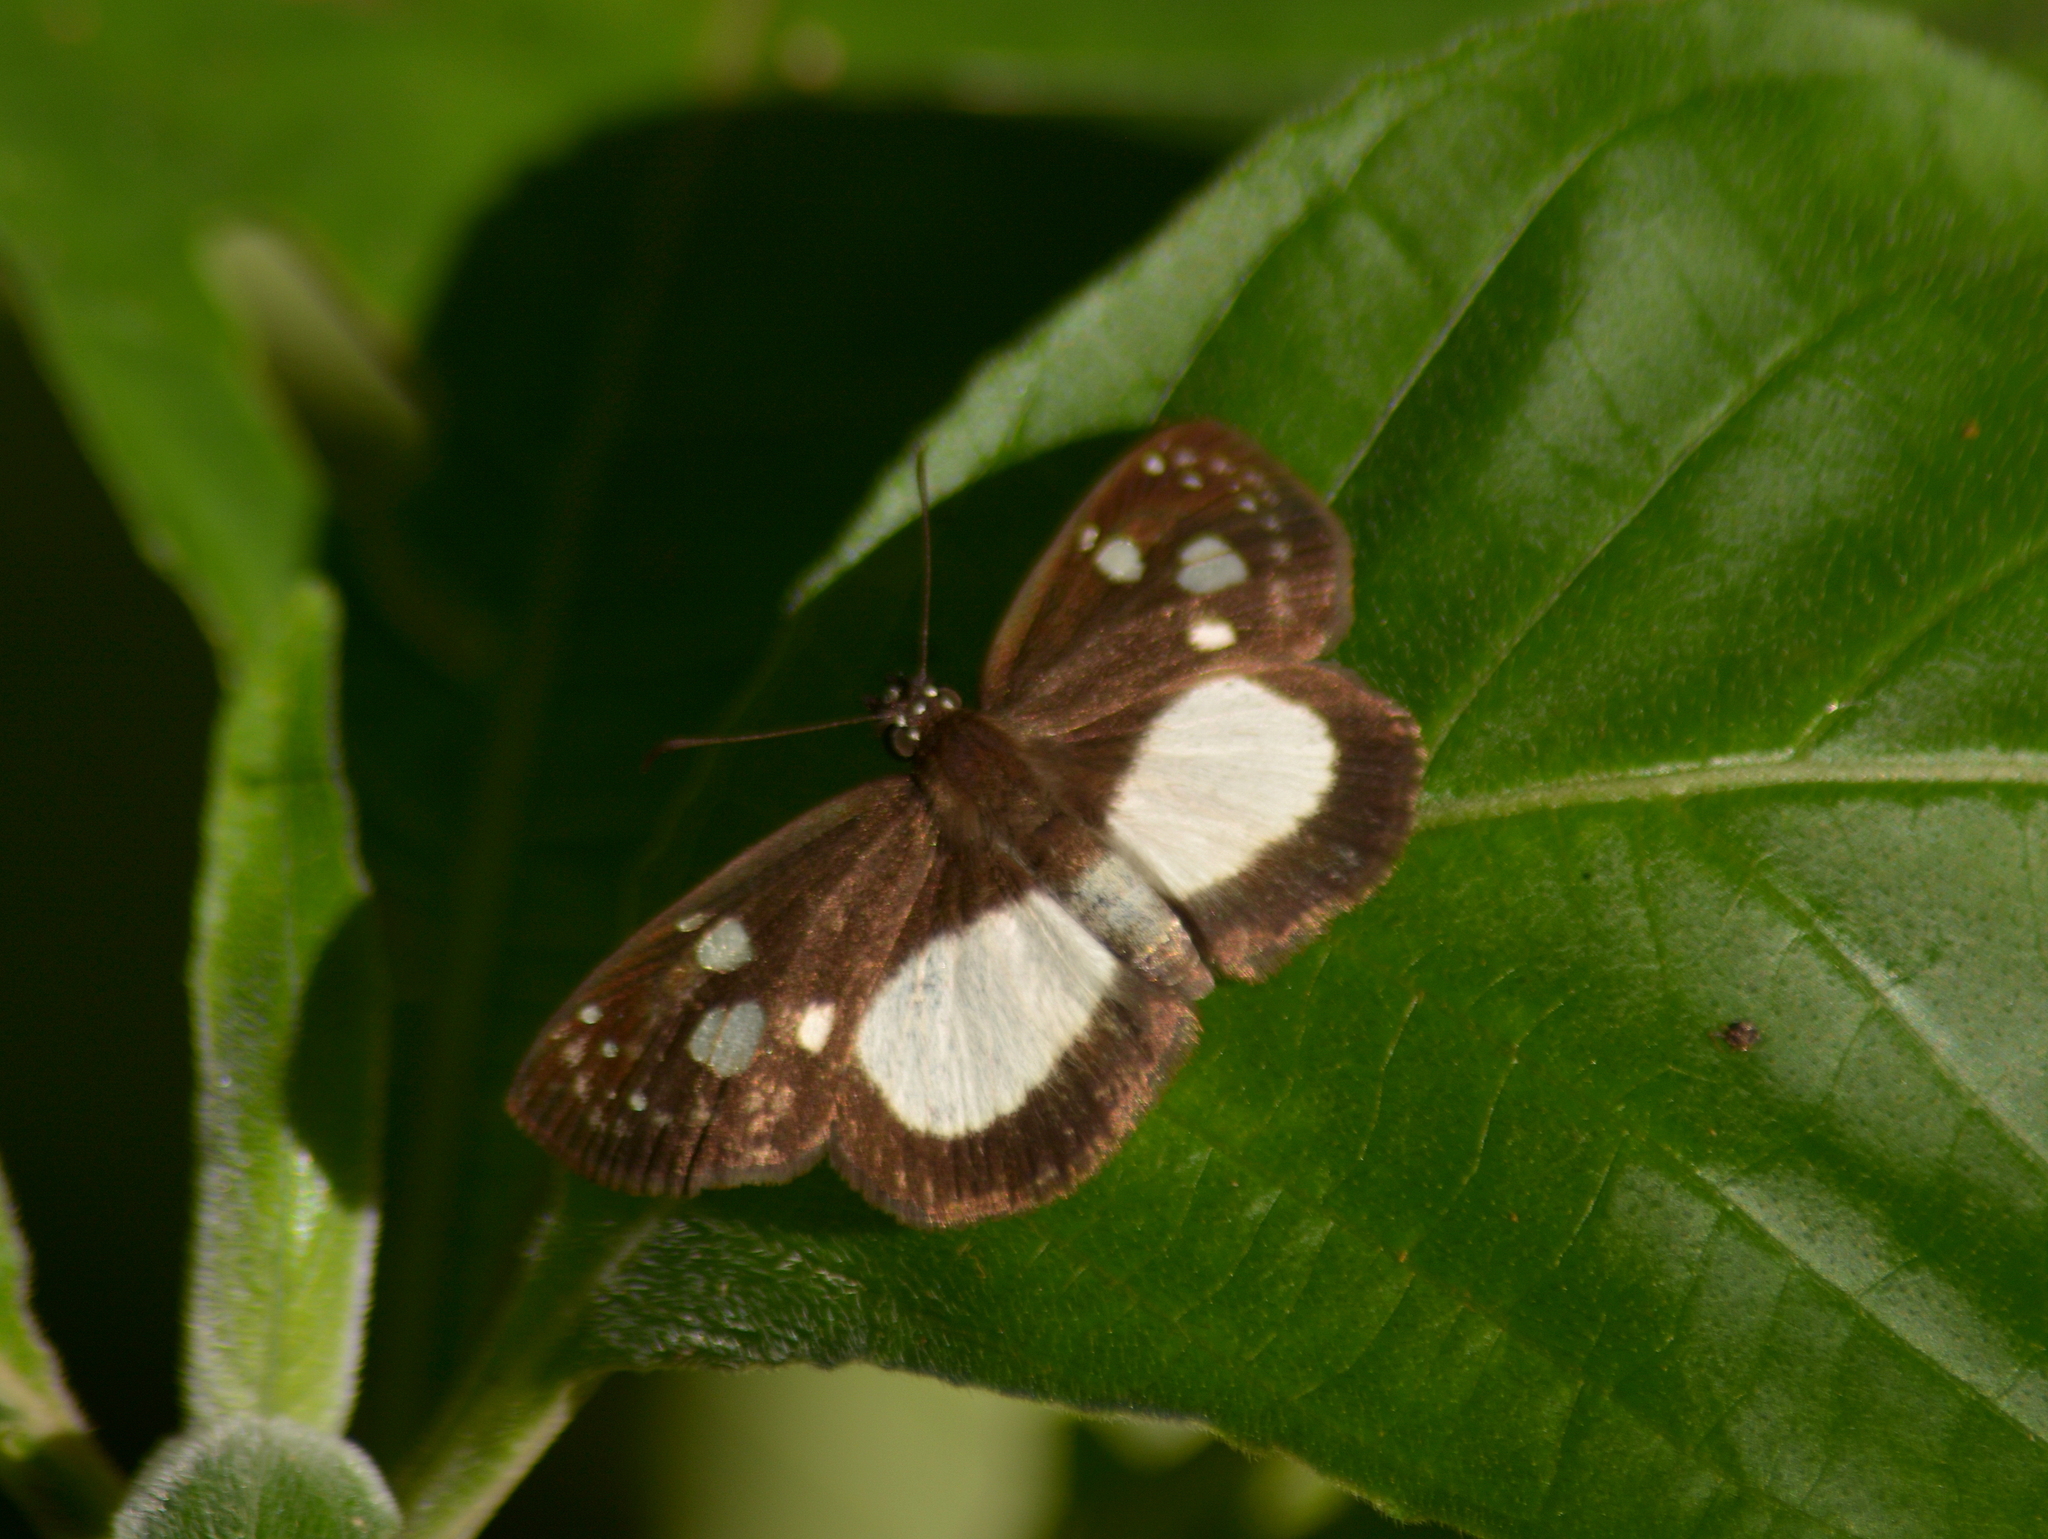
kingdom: Animalia
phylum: Arthropoda
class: Insecta
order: Lepidoptera
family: Hesperiidae
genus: Milanion
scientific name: Milanion leucaspis
